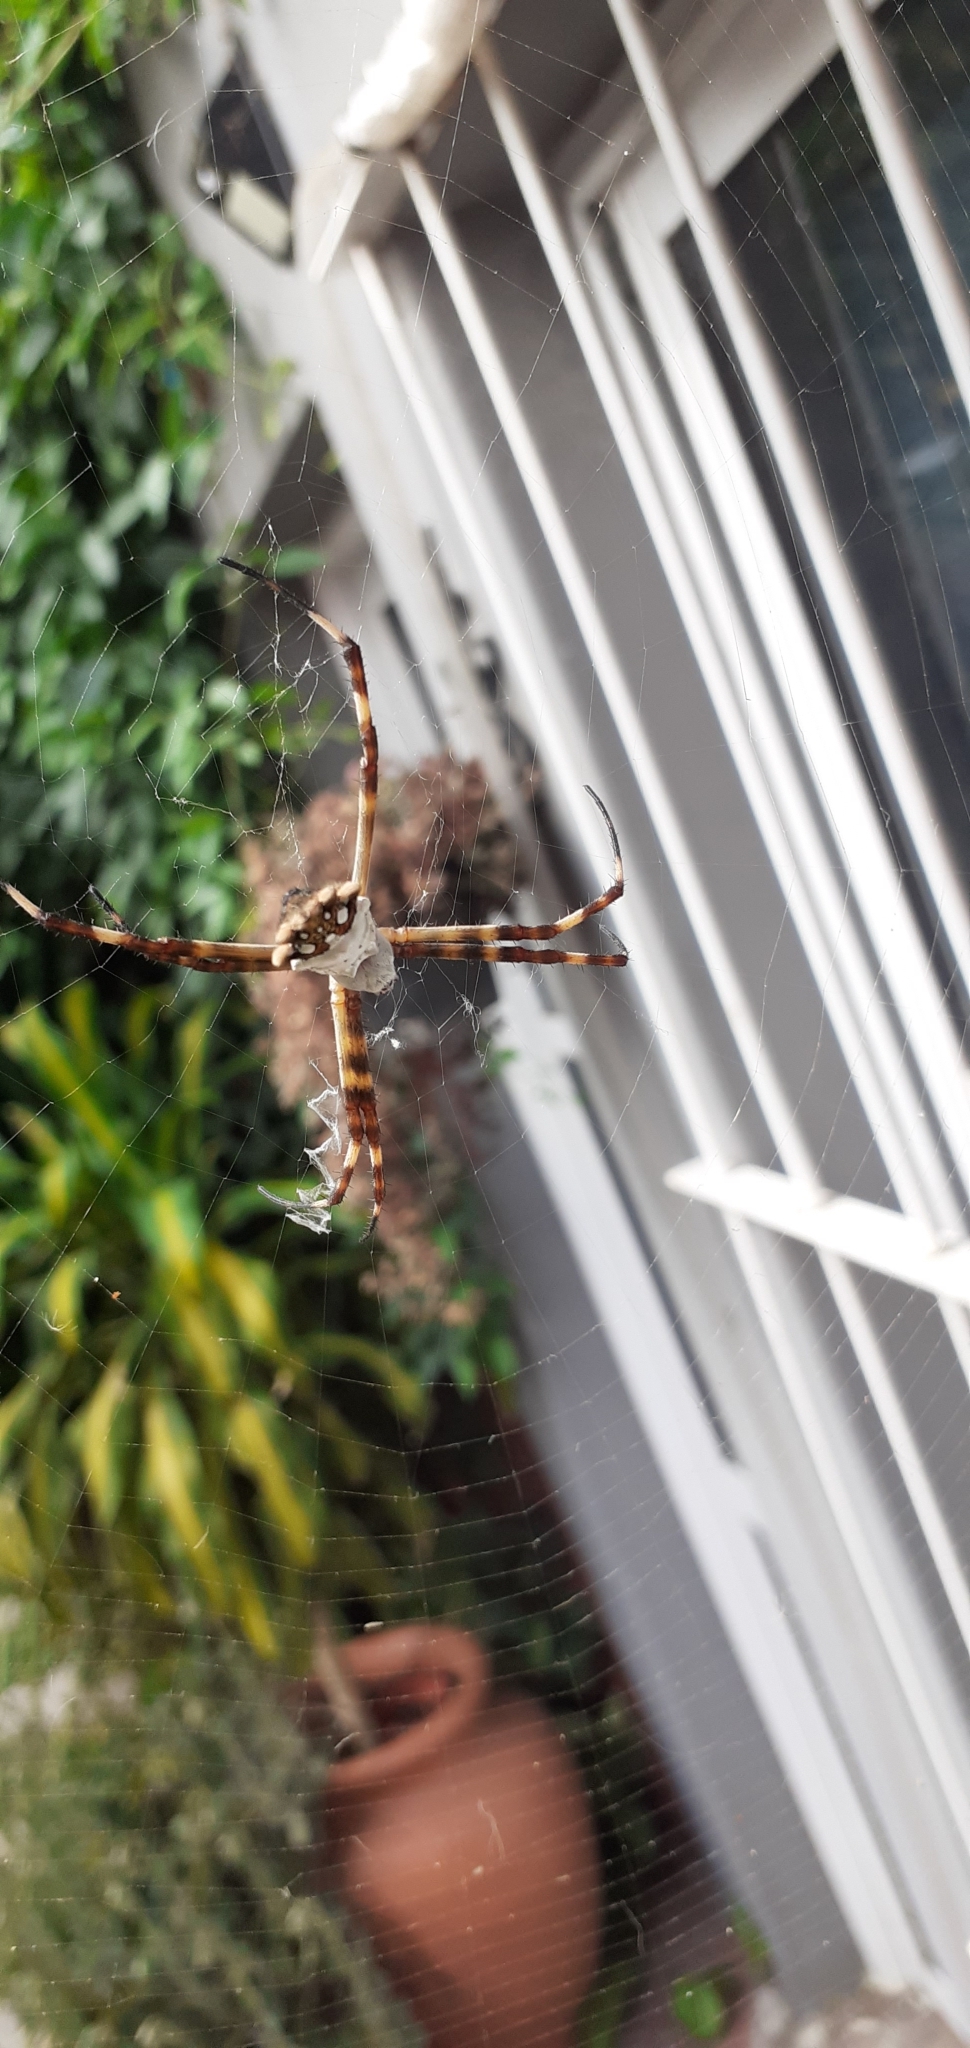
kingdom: Animalia
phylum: Arthropoda
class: Arachnida
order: Araneae
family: Araneidae
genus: Argiope
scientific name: Argiope argentata
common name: Orb weavers
